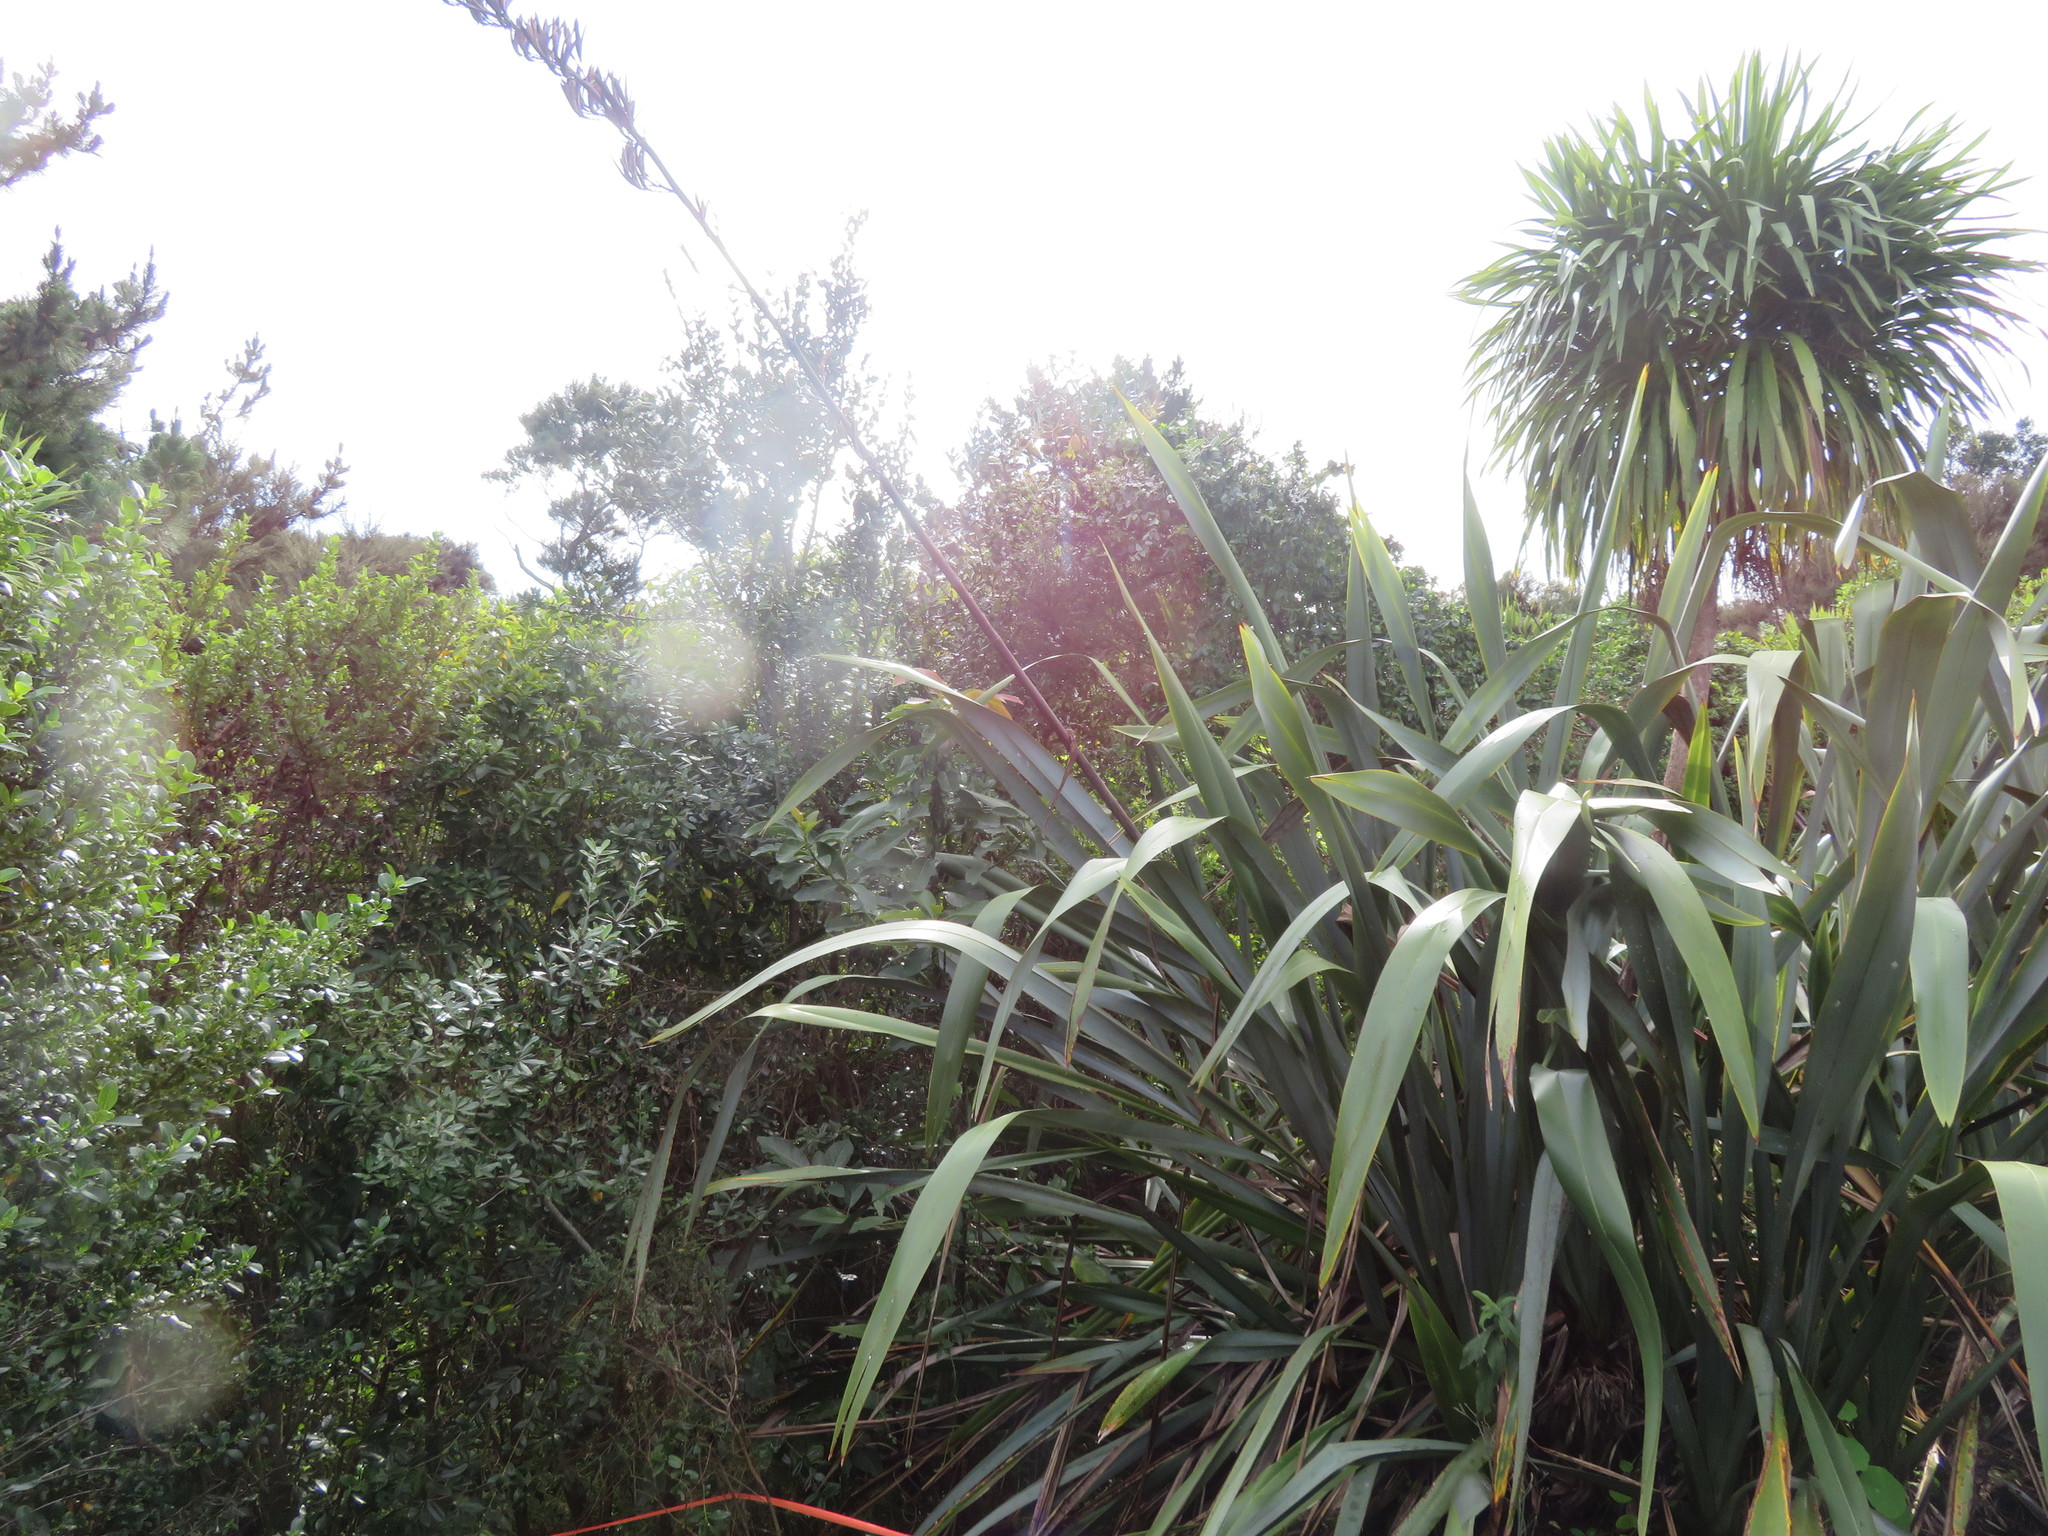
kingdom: Plantae
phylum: Tracheophyta
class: Liliopsida
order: Asparagales
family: Asparagaceae
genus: Cordyline
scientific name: Cordyline australis
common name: Cabbage-palm
